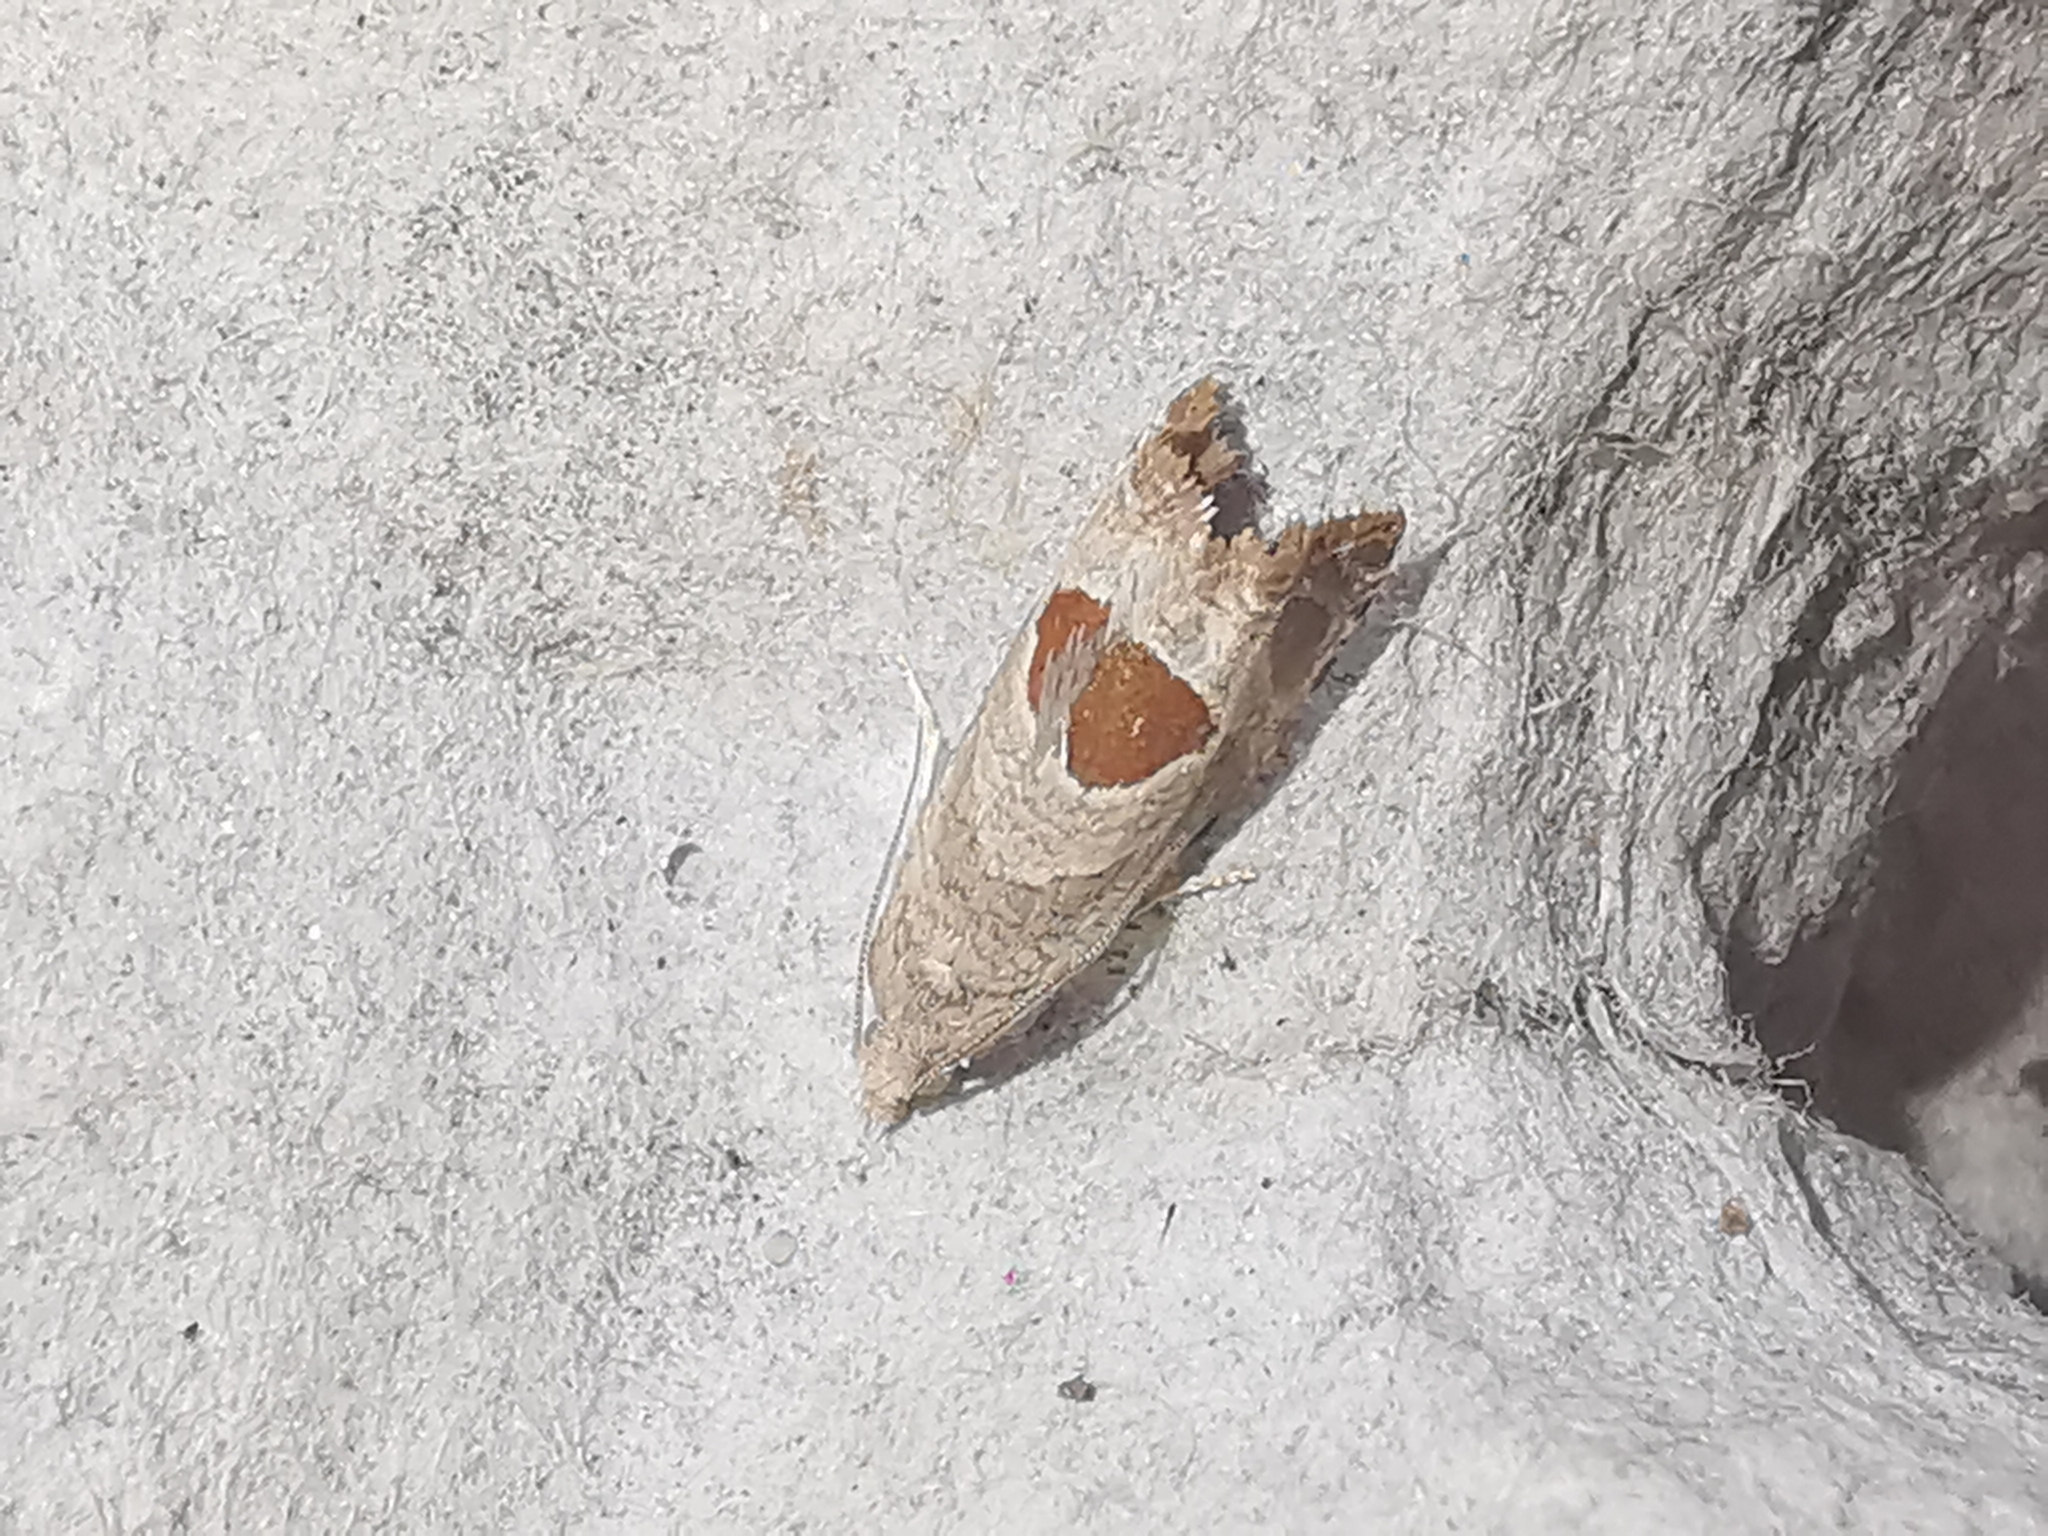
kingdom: Animalia
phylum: Arthropoda
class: Insecta
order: Lepidoptera
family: Tortricidae
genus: Notocelia
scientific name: Notocelia uddmanniana
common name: Bramble shoot moth
